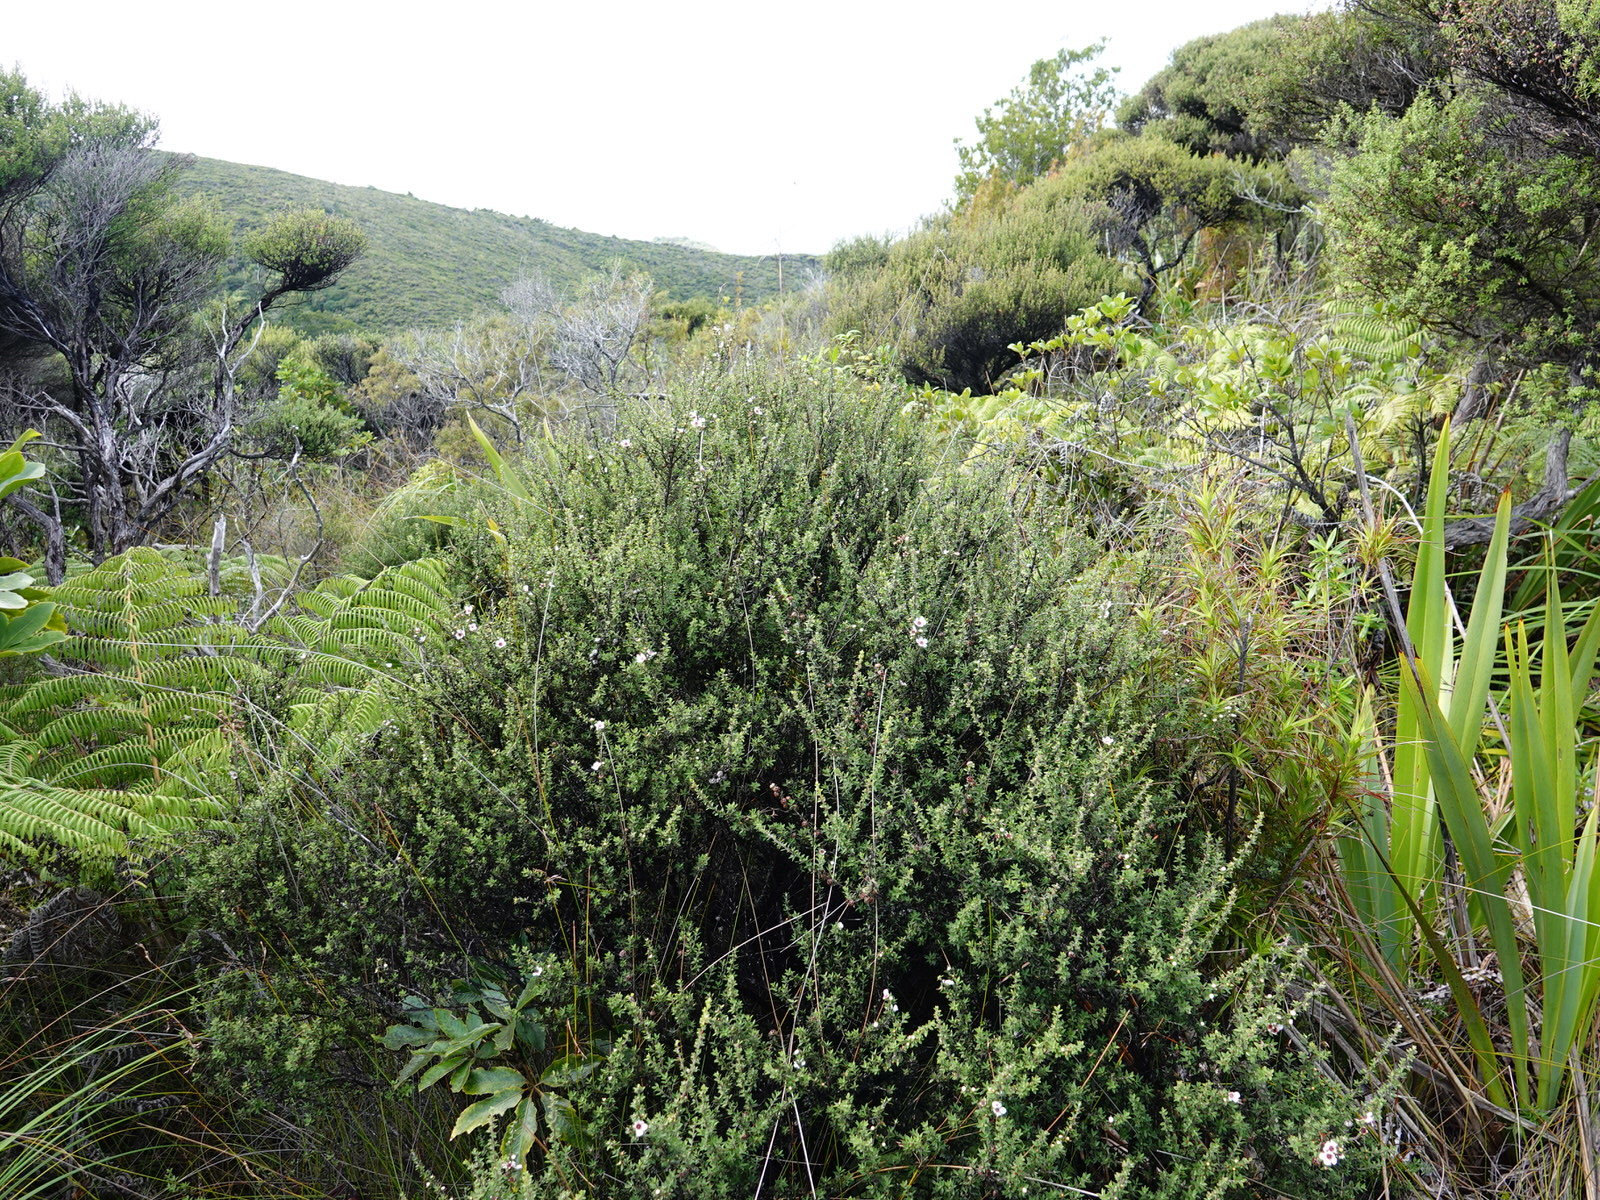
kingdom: Plantae
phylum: Tracheophyta
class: Magnoliopsida
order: Myrtales
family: Myrtaceae
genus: Leptospermum
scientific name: Leptospermum scoparium
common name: Broom tea-tree
